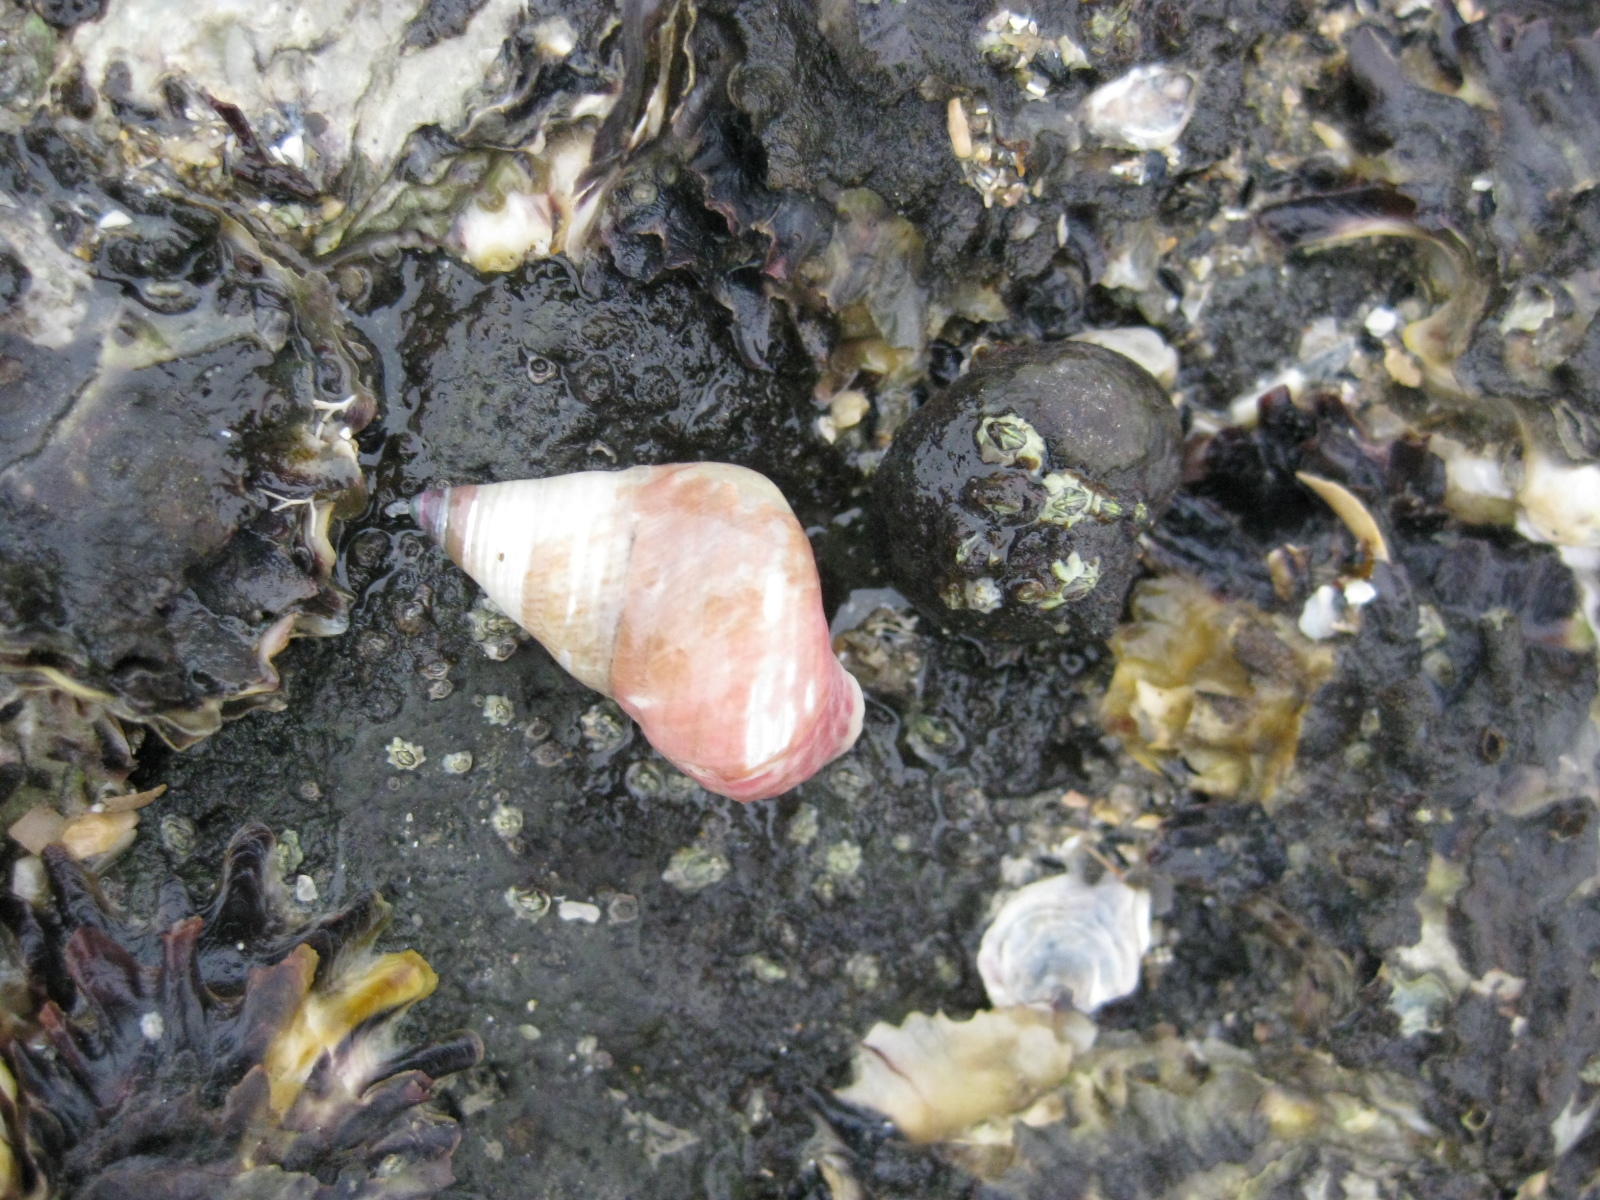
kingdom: Animalia
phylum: Mollusca
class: Gastropoda
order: Trochida
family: Trochidae
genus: Micrelenchus
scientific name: Micrelenchus purpureus
